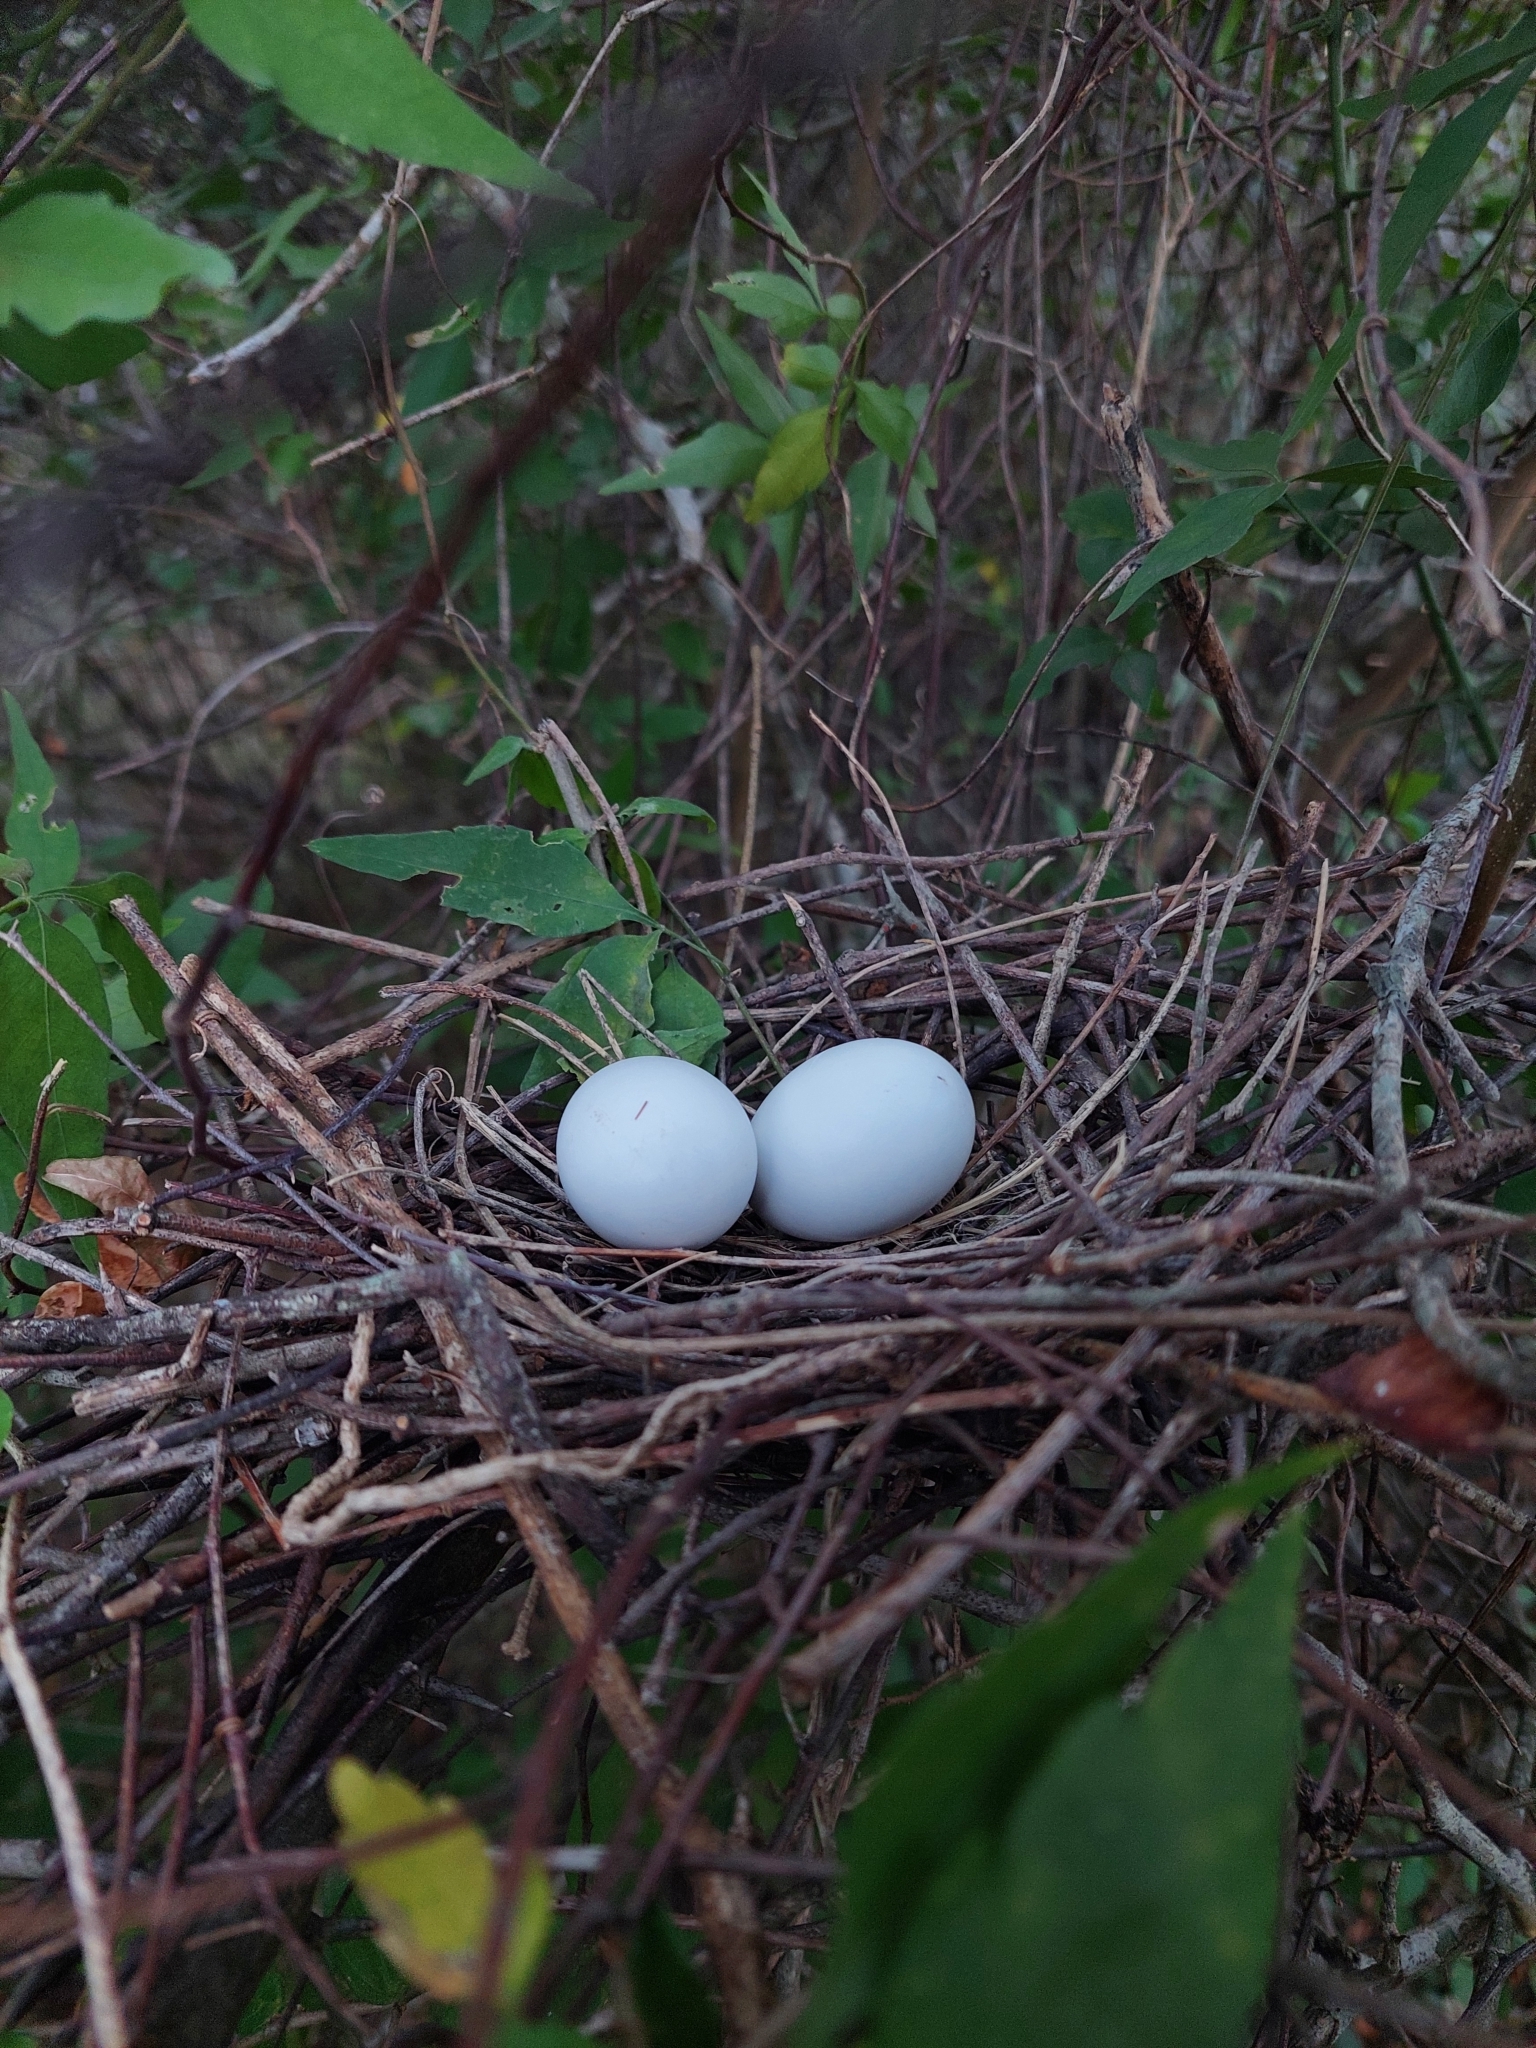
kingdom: Animalia
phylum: Chordata
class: Aves
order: Columbiformes
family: Columbidae
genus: Zenaida
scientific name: Zenaida auriculata
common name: Eared dove
